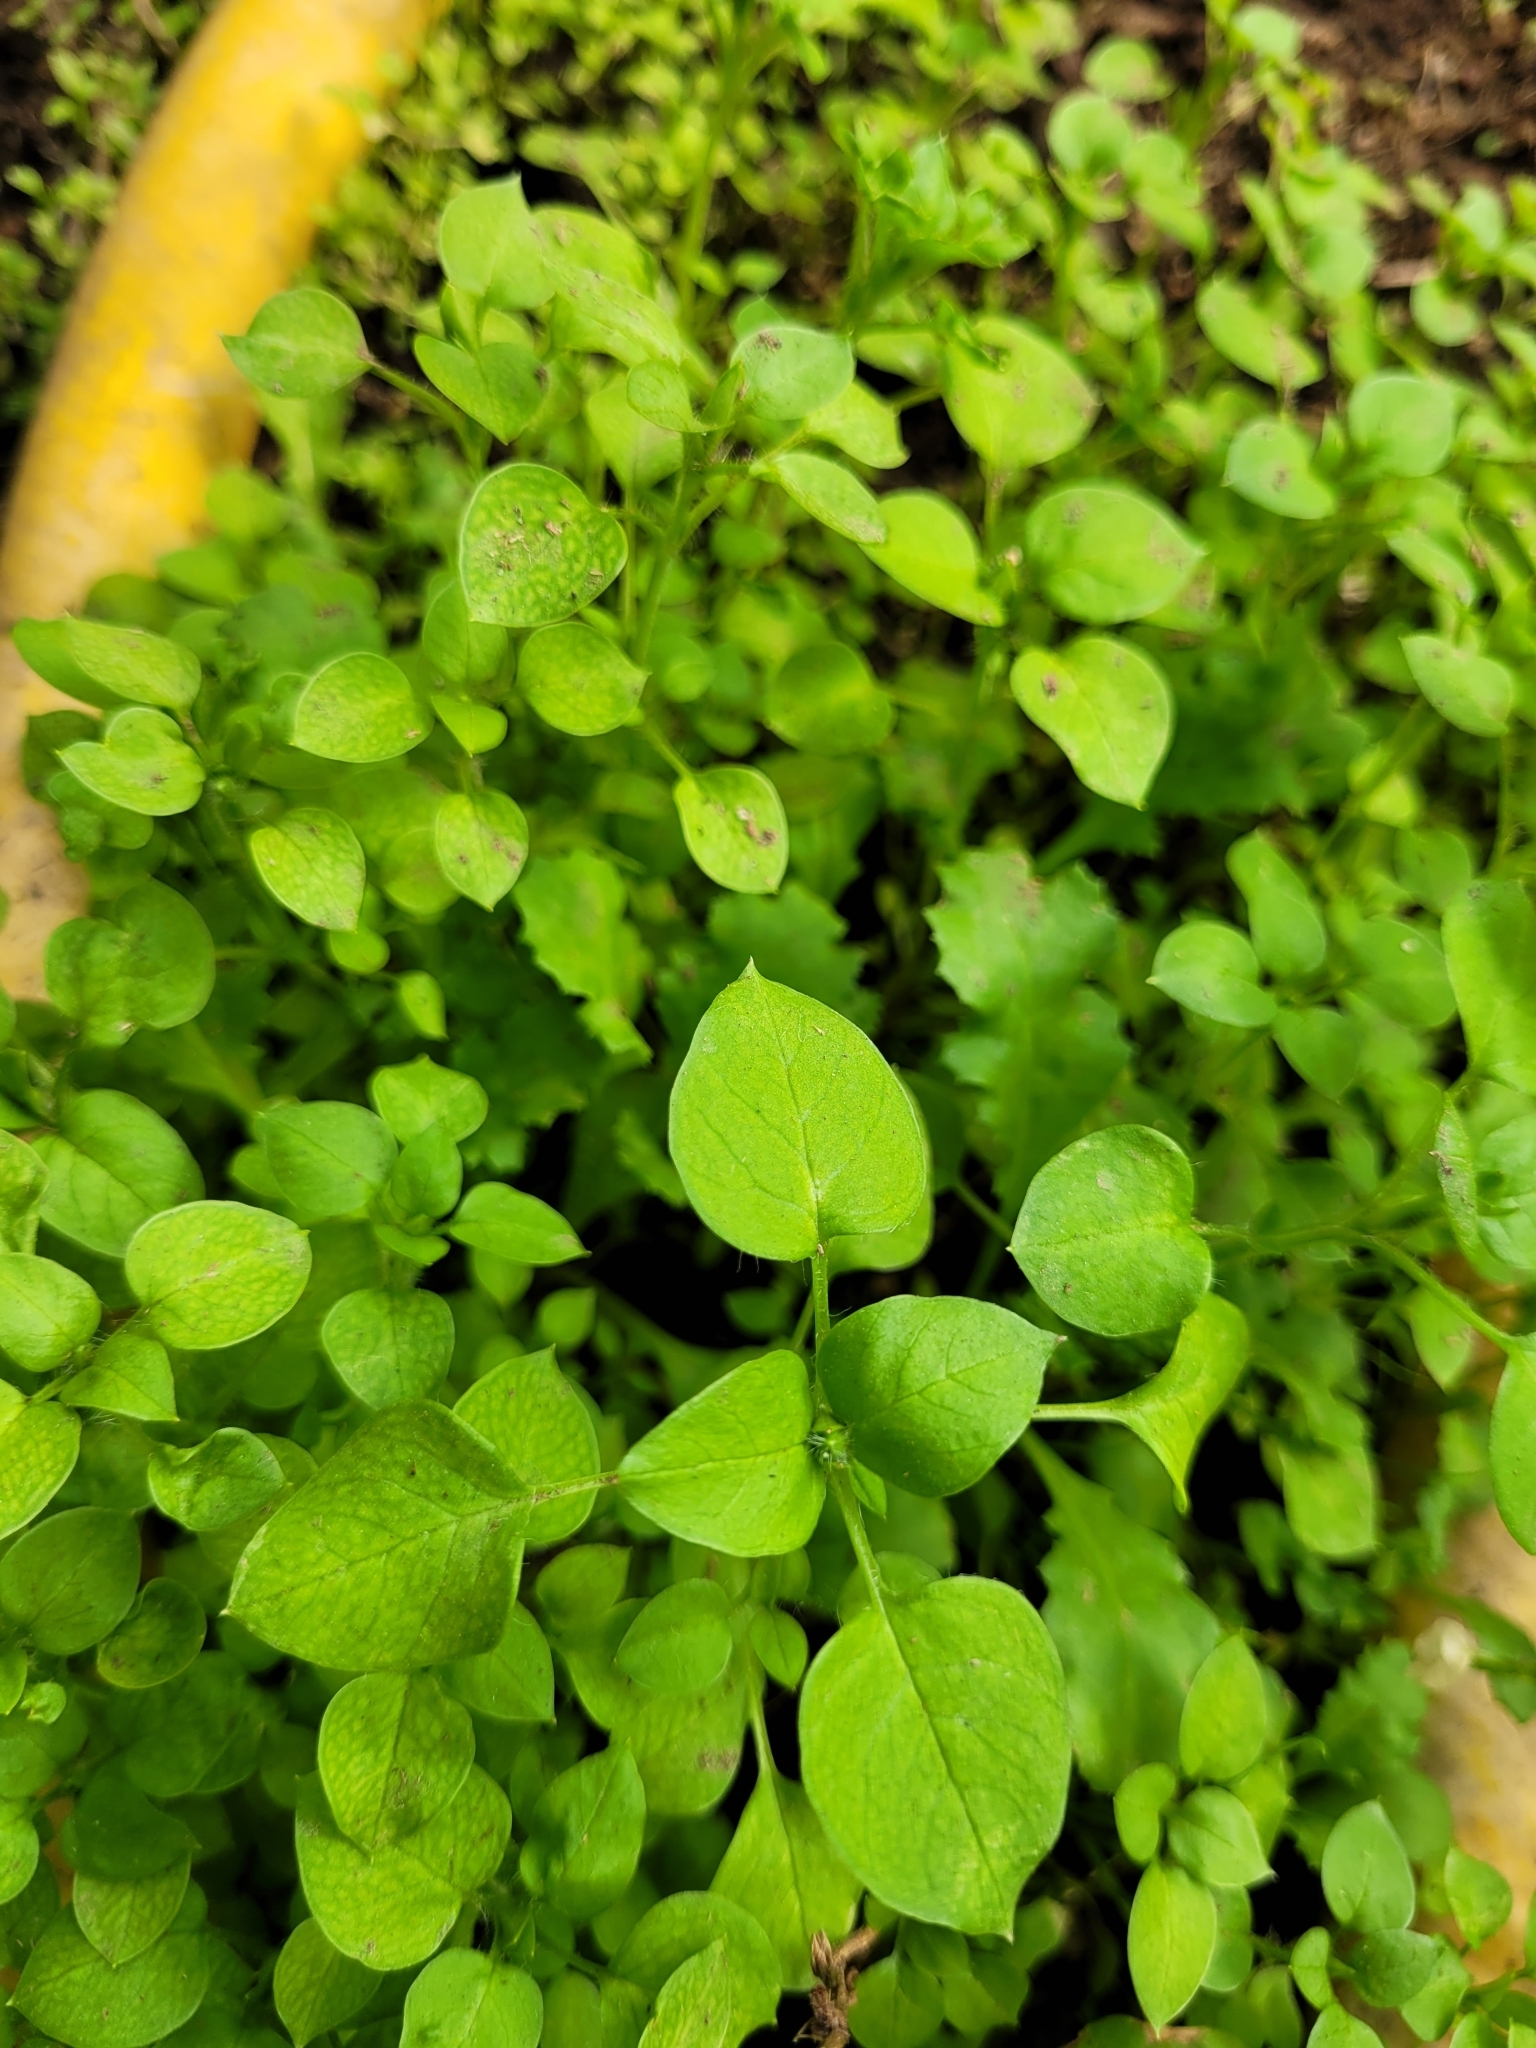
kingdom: Plantae
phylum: Tracheophyta
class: Magnoliopsida
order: Caryophyllales
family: Caryophyllaceae
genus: Stellaria
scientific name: Stellaria media
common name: Common chickweed
